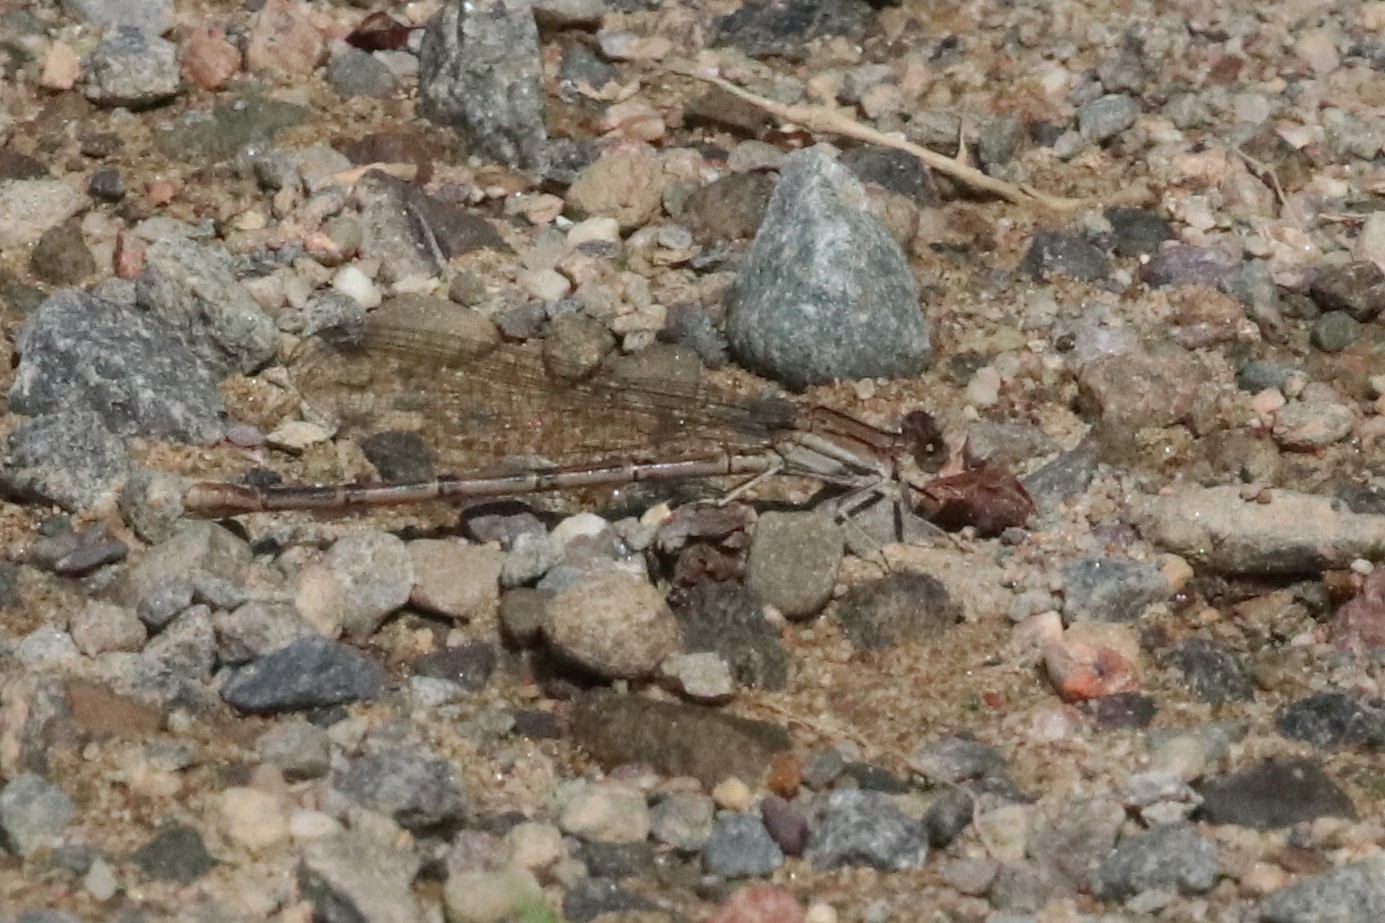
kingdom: Animalia
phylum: Arthropoda
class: Insecta
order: Odonata
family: Coenagrionidae
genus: Argia
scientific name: Argia fumipennis
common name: Variable dancer
